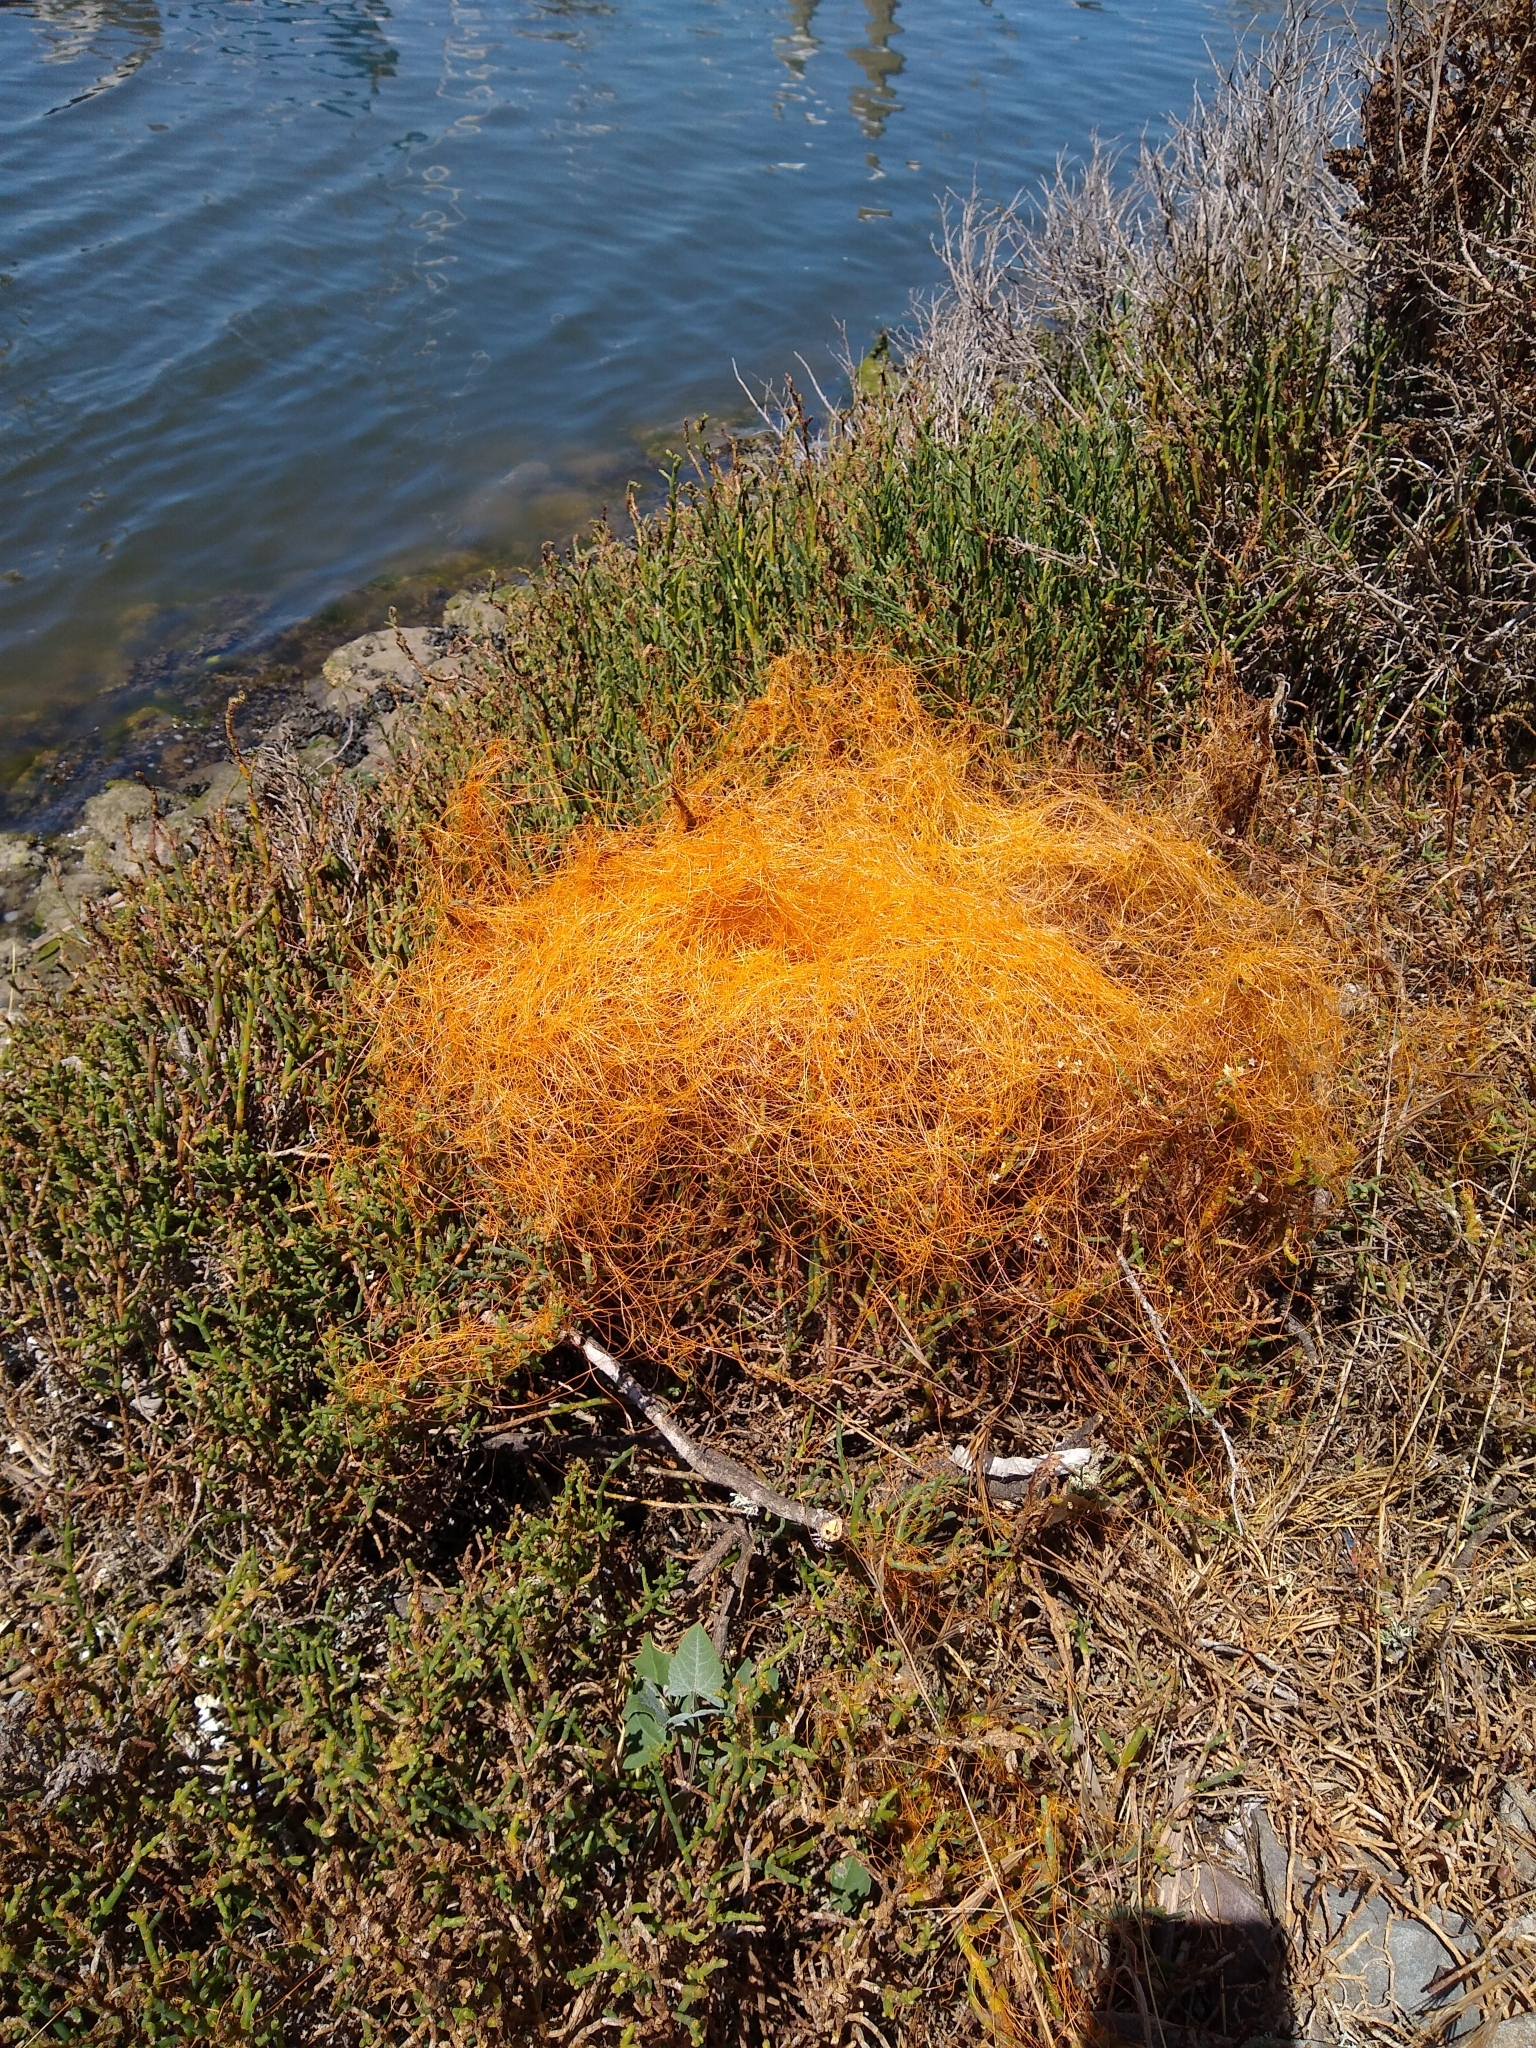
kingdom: Plantae
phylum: Tracheophyta
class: Magnoliopsida
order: Solanales
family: Convolvulaceae
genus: Cuscuta
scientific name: Cuscuta pacifica
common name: Large saltmarsh dodder
